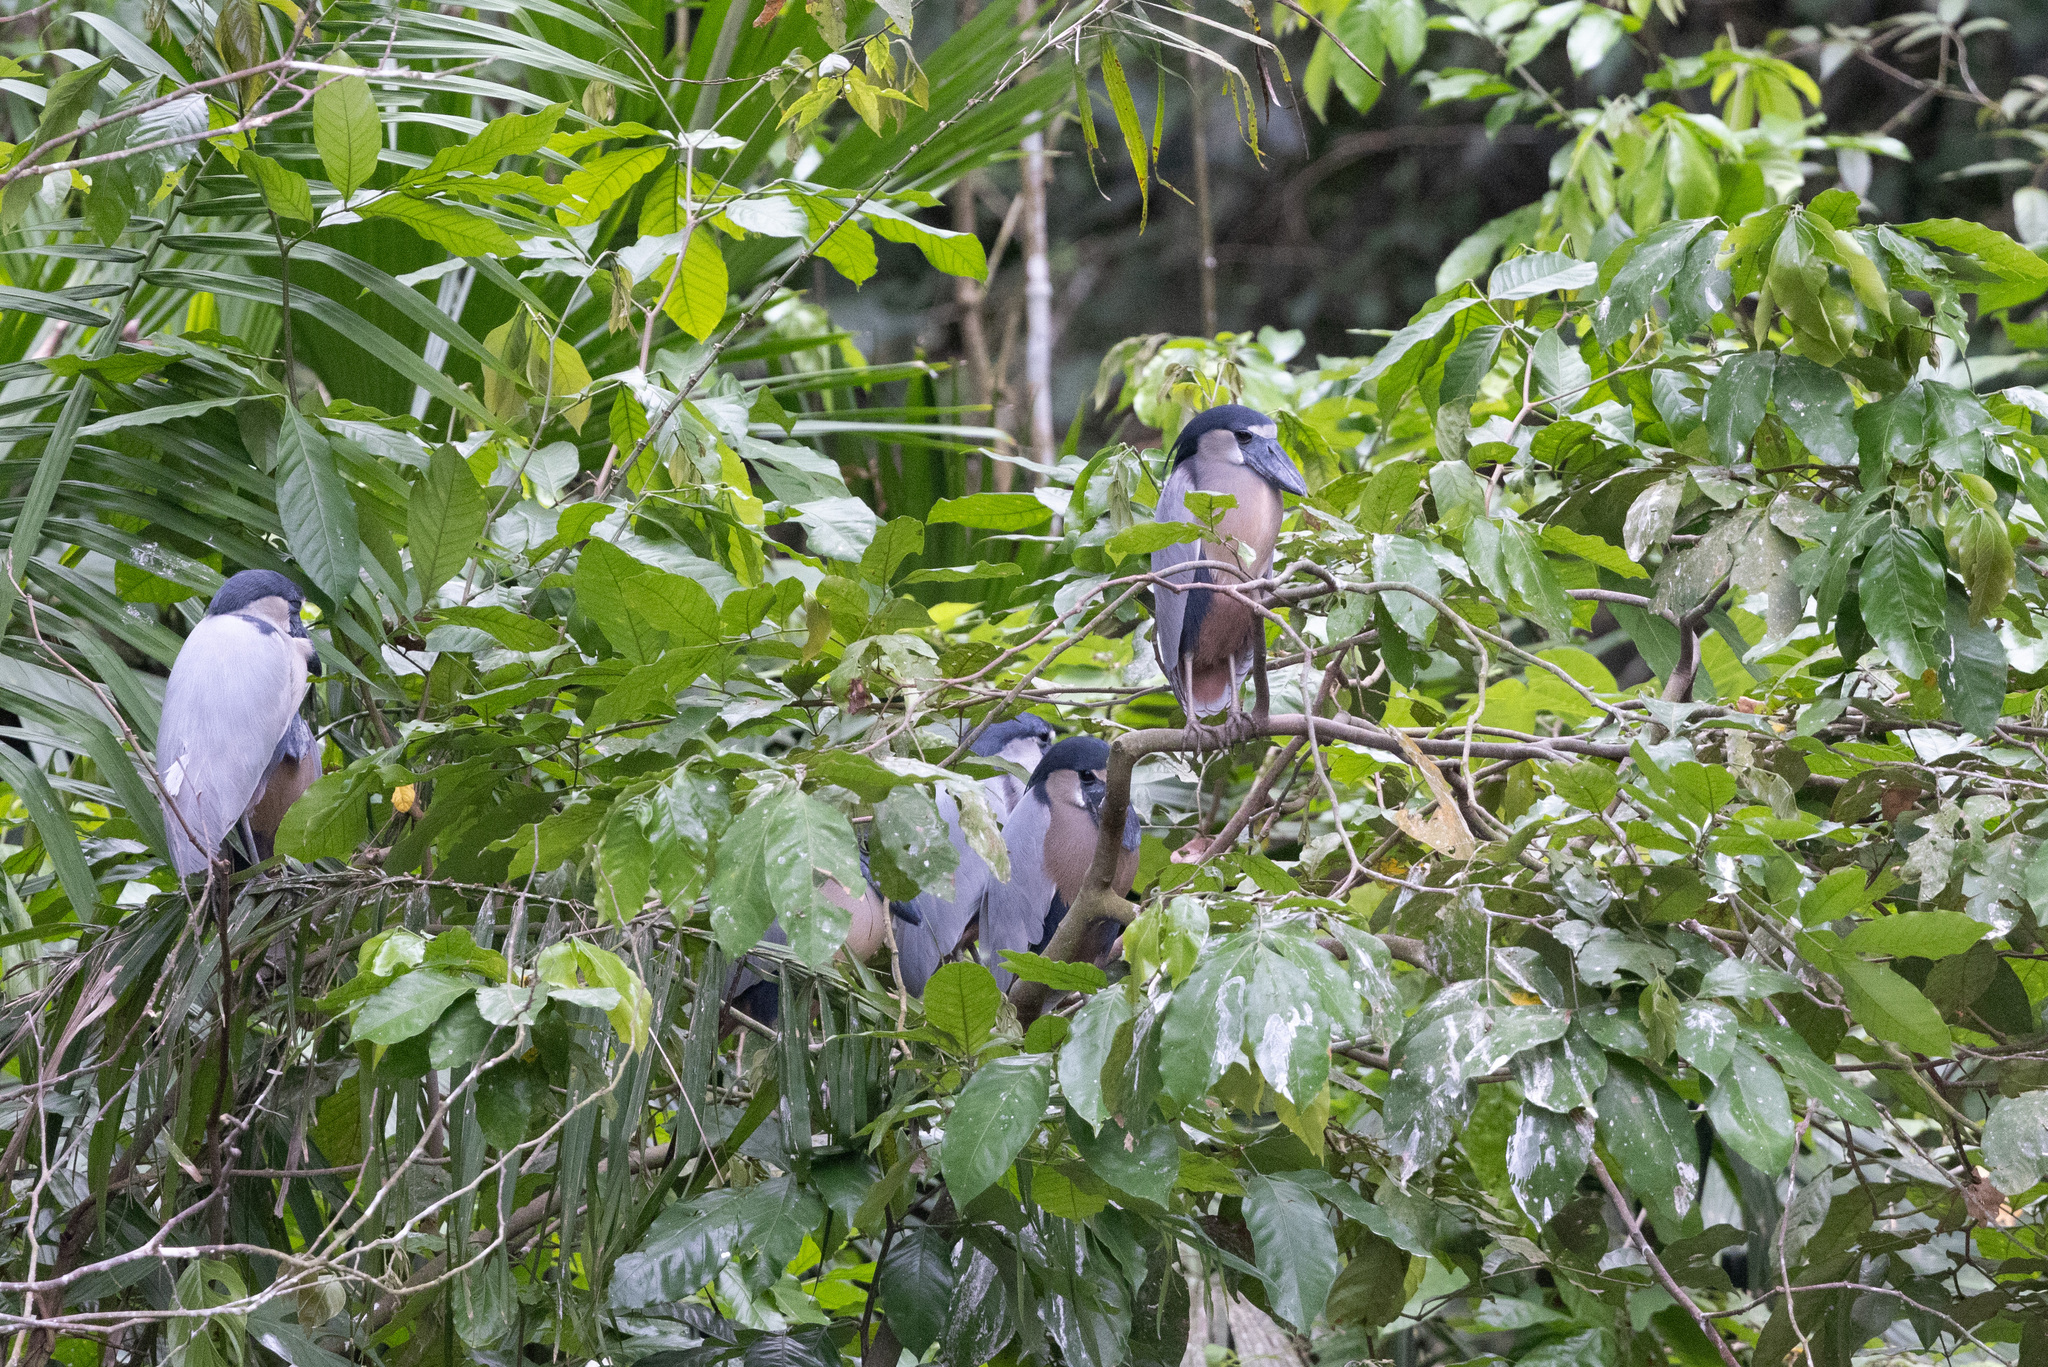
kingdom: Animalia
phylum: Chordata
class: Aves
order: Pelecaniformes
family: Ardeidae
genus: Cochlearius
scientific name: Cochlearius cochlearius
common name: Boat-billed heron
